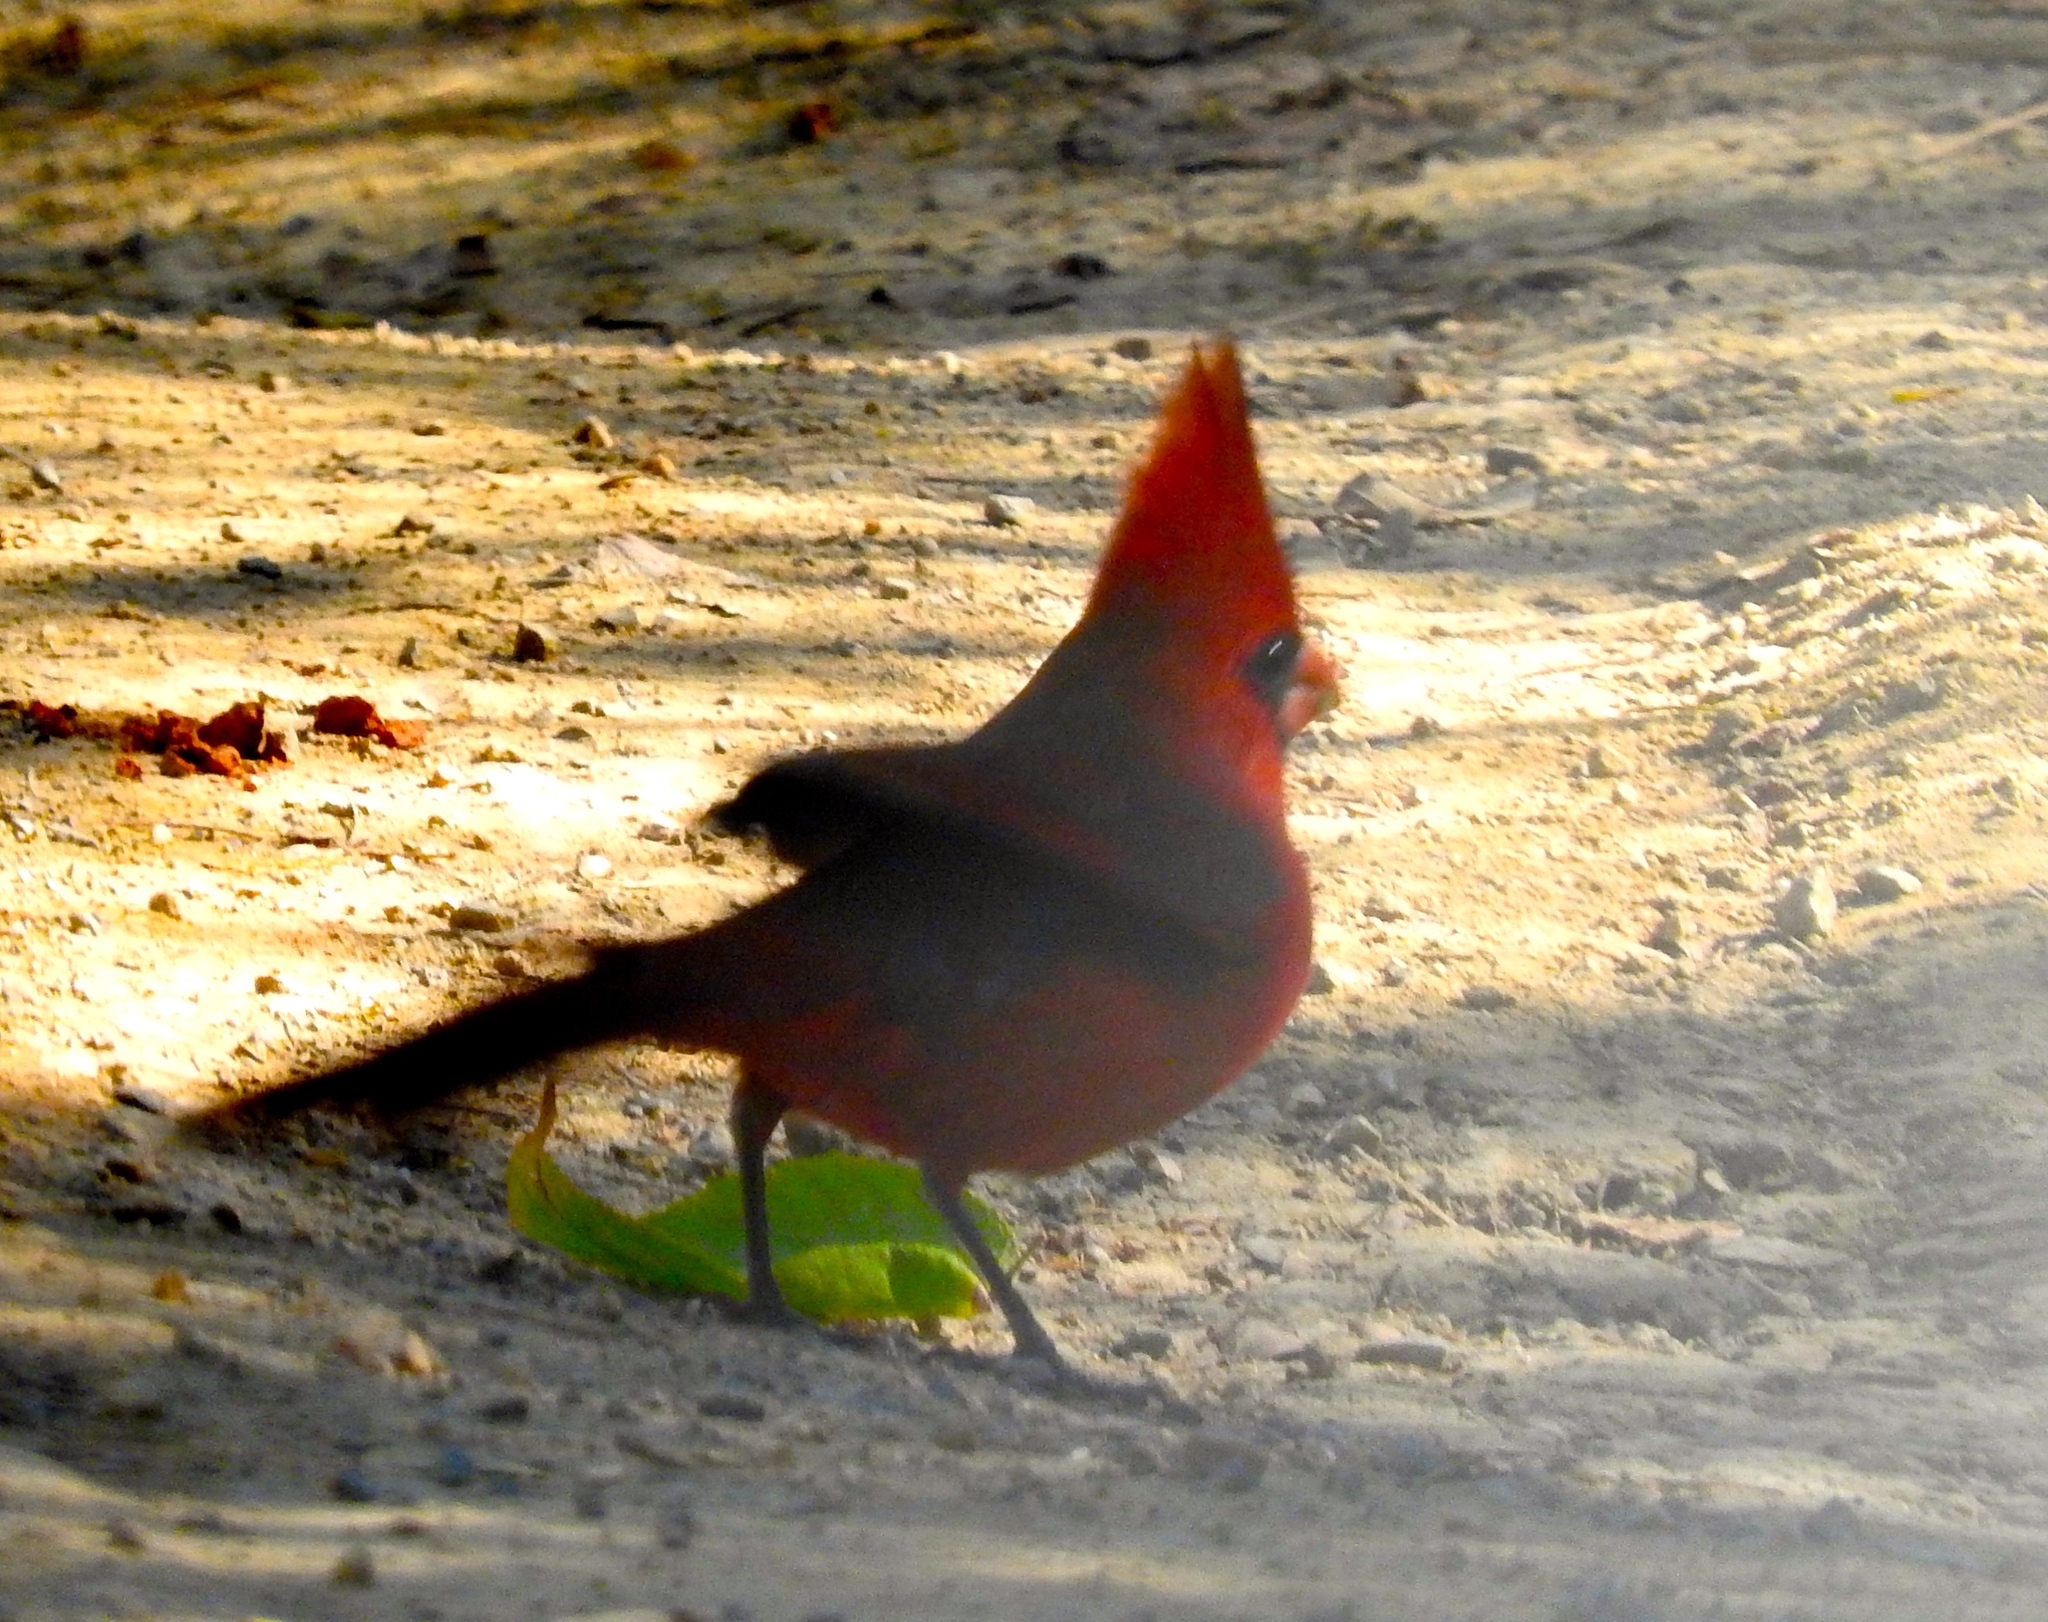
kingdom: Animalia
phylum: Chordata
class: Aves
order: Passeriformes
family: Cardinalidae
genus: Cardinalis
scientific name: Cardinalis cardinalis
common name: Northern cardinal
